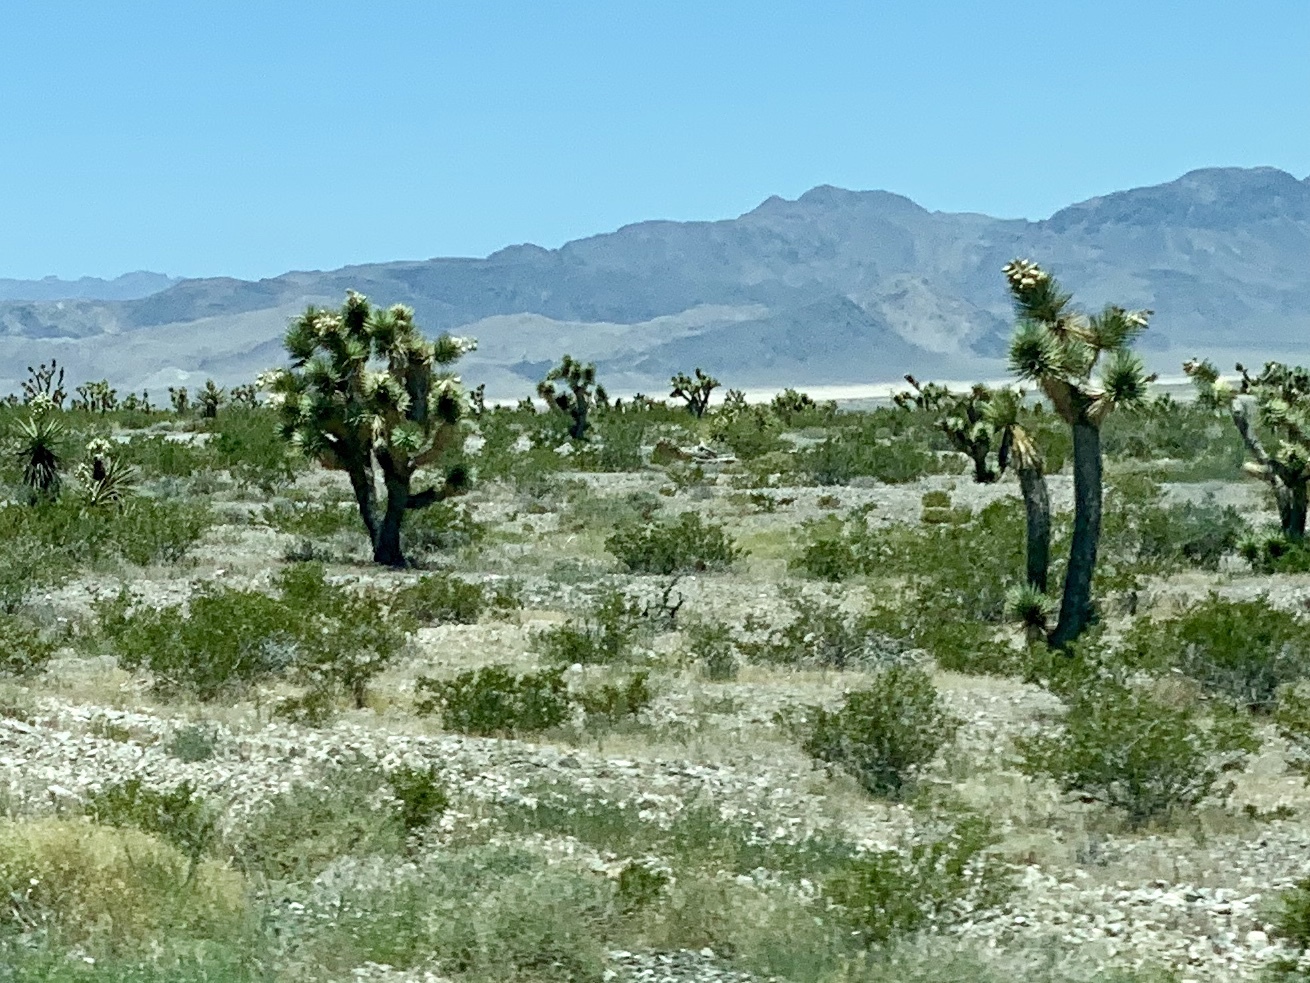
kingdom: Plantae
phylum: Tracheophyta
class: Liliopsida
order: Asparagales
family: Asparagaceae
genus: Yucca
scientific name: Yucca brevifolia
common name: Joshua tree
